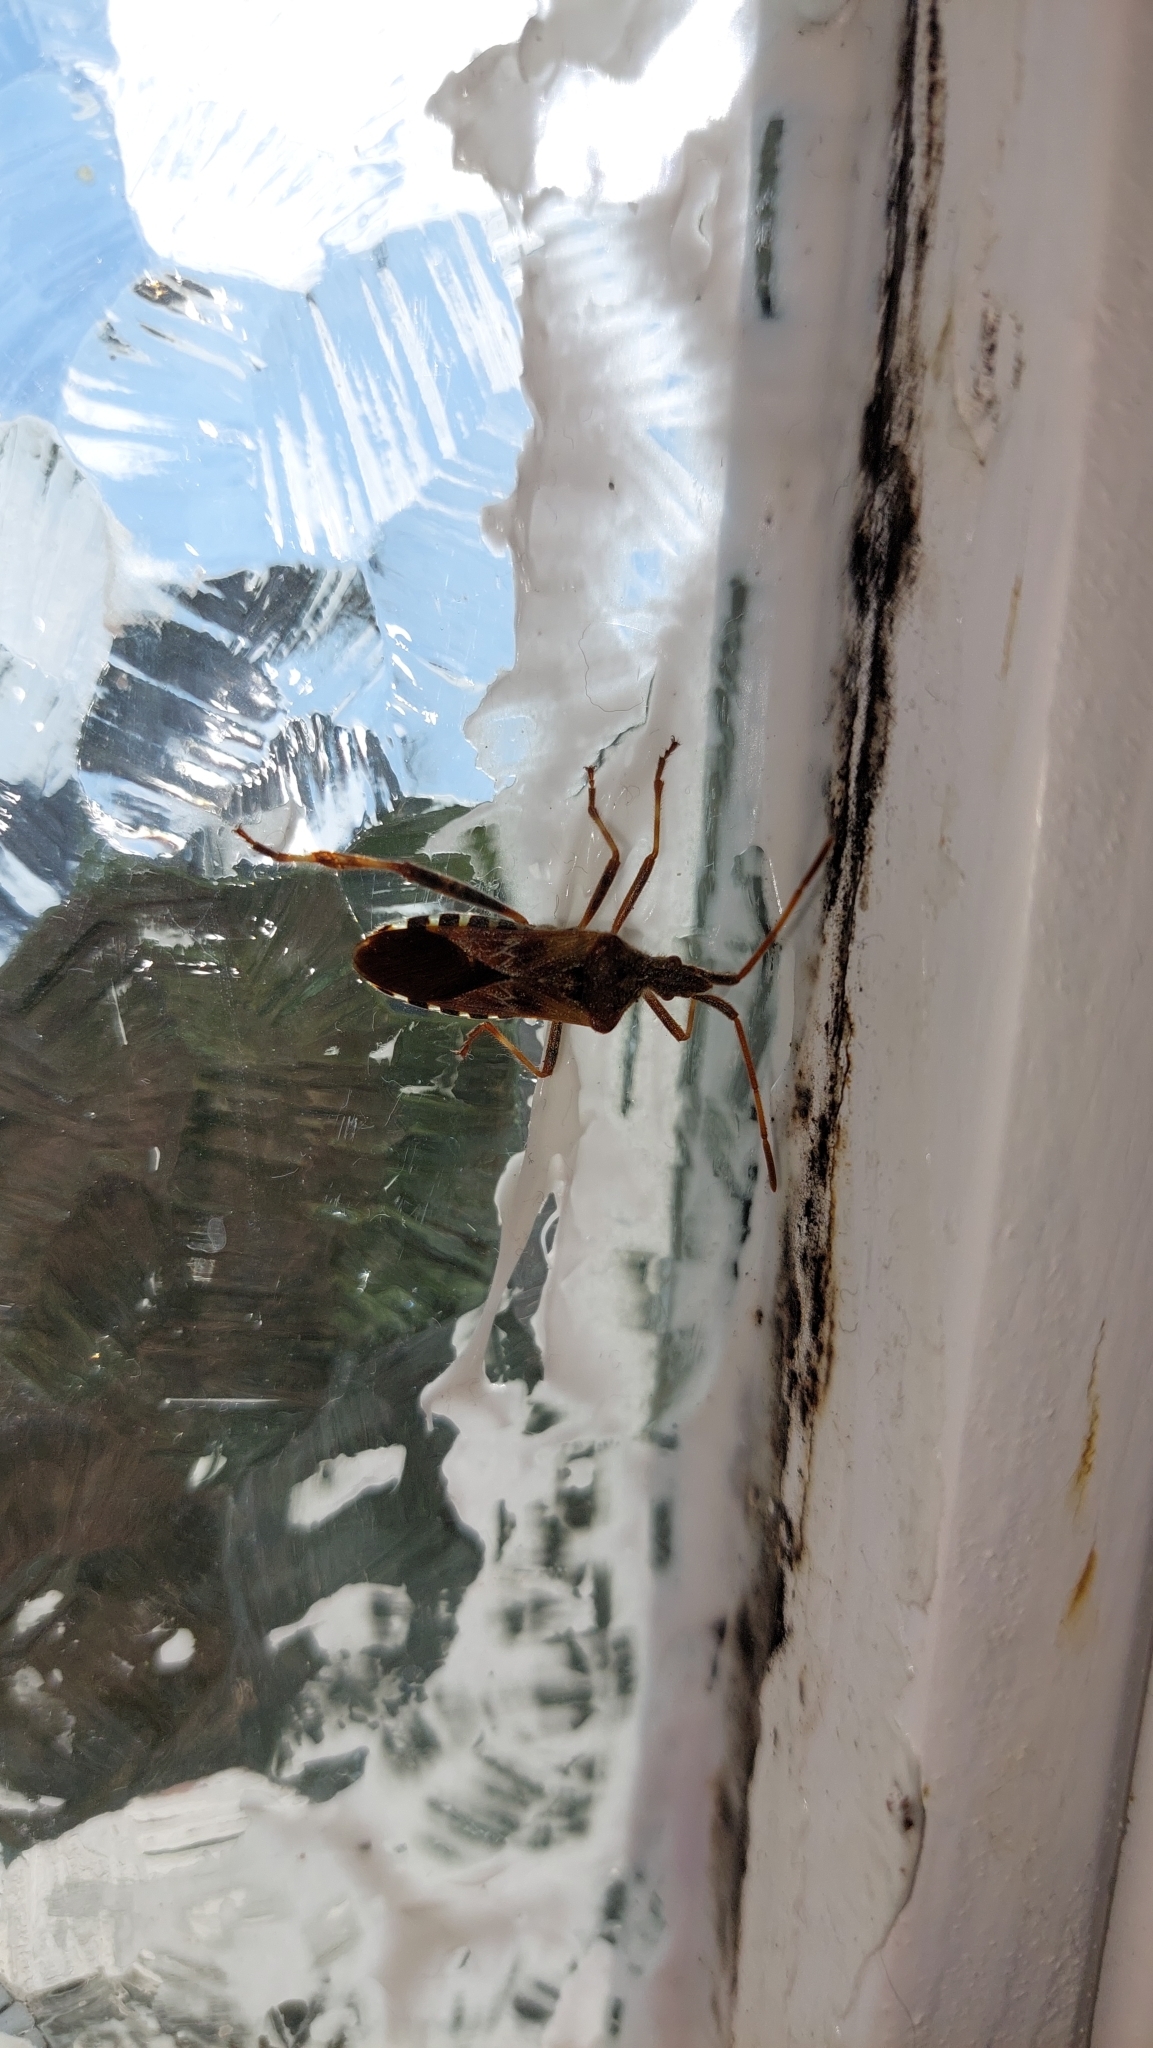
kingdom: Animalia
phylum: Arthropoda
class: Insecta
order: Hemiptera
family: Coreidae
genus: Leptoglossus
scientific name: Leptoglossus occidentalis
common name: Western conifer-seed bug
